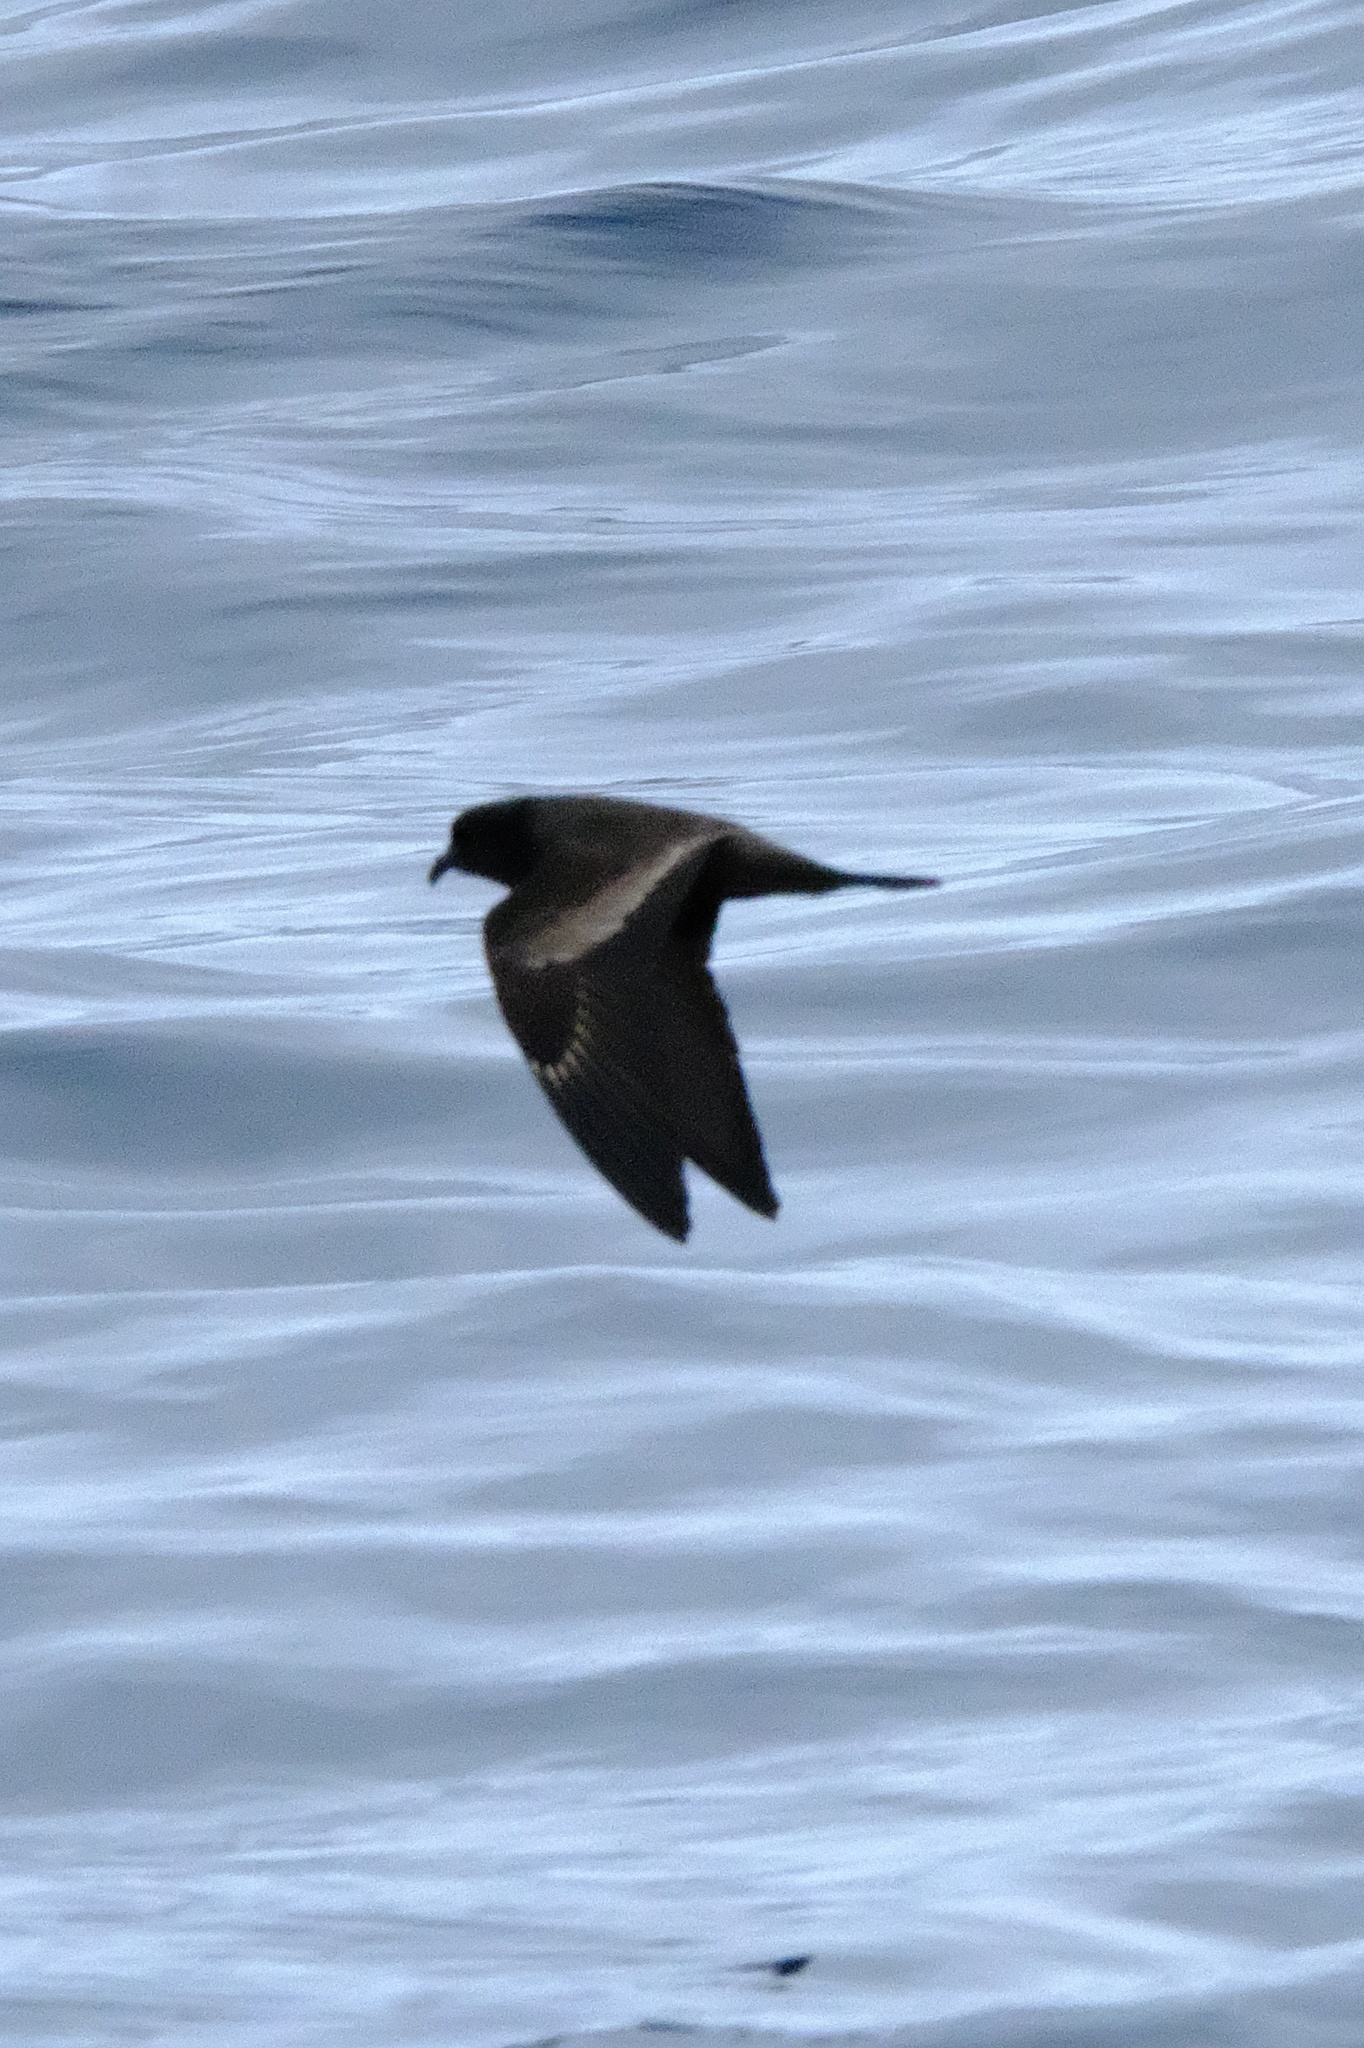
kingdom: Animalia
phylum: Chordata
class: Aves
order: Procellariiformes
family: Hydrobatidae
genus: Hydrobates
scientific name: Hydrobates melania
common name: Black storm petrel
